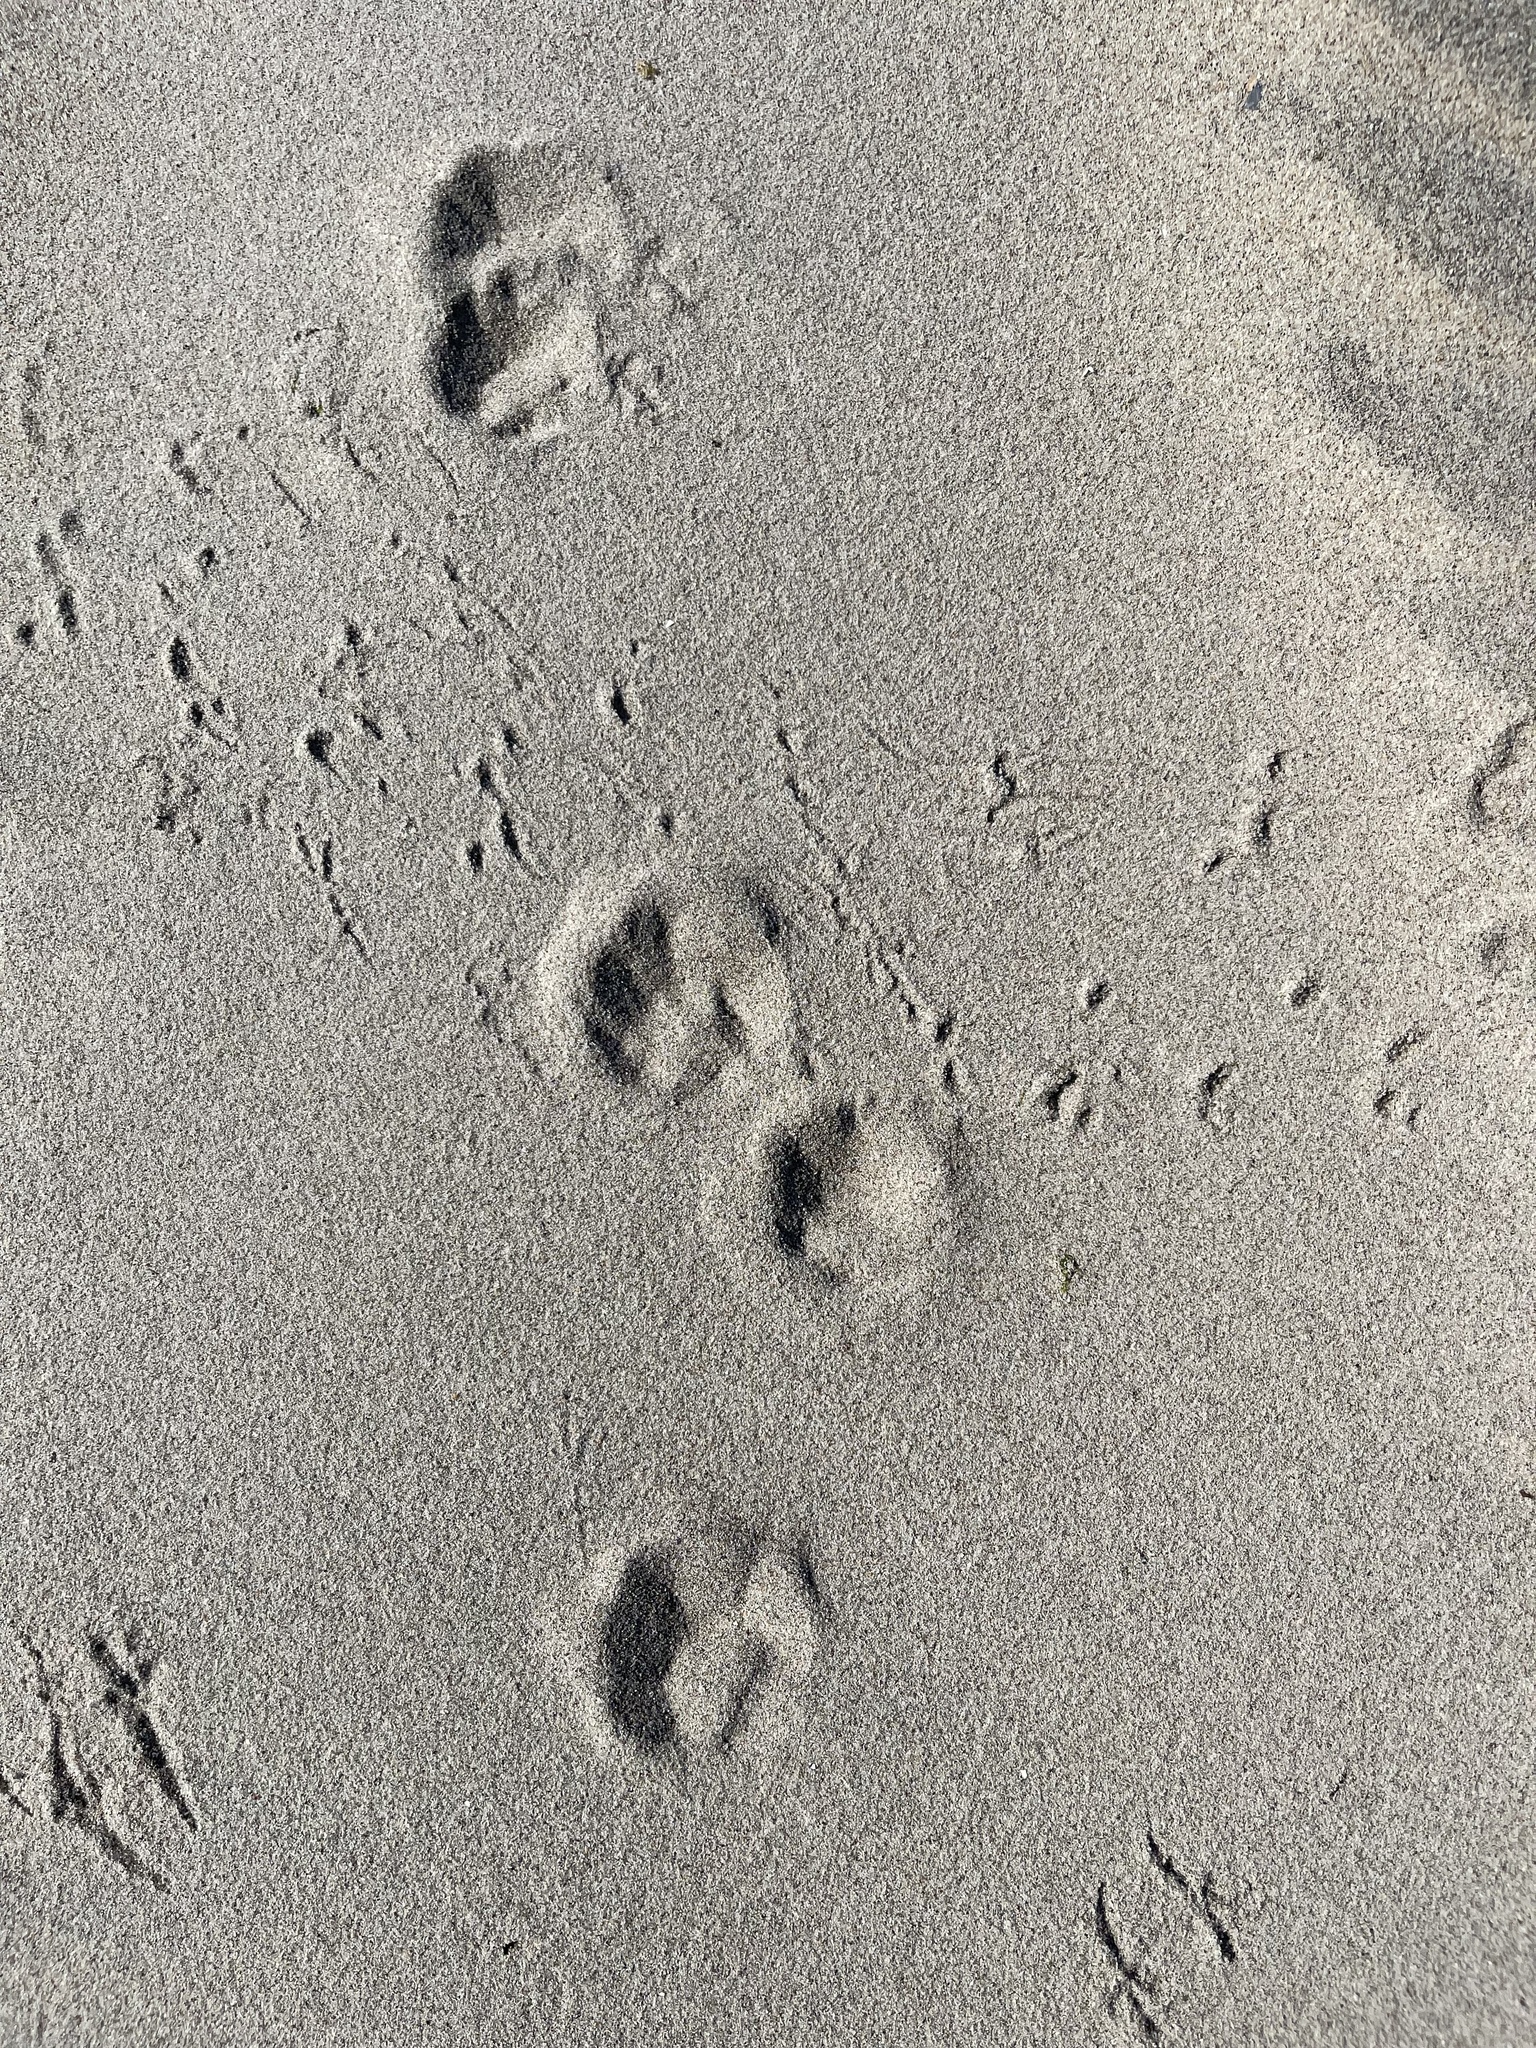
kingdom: Animalia
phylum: Chordata
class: Mammalia
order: Carnivora
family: Felidae
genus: Felis
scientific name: Felis catus
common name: Domestic cat
